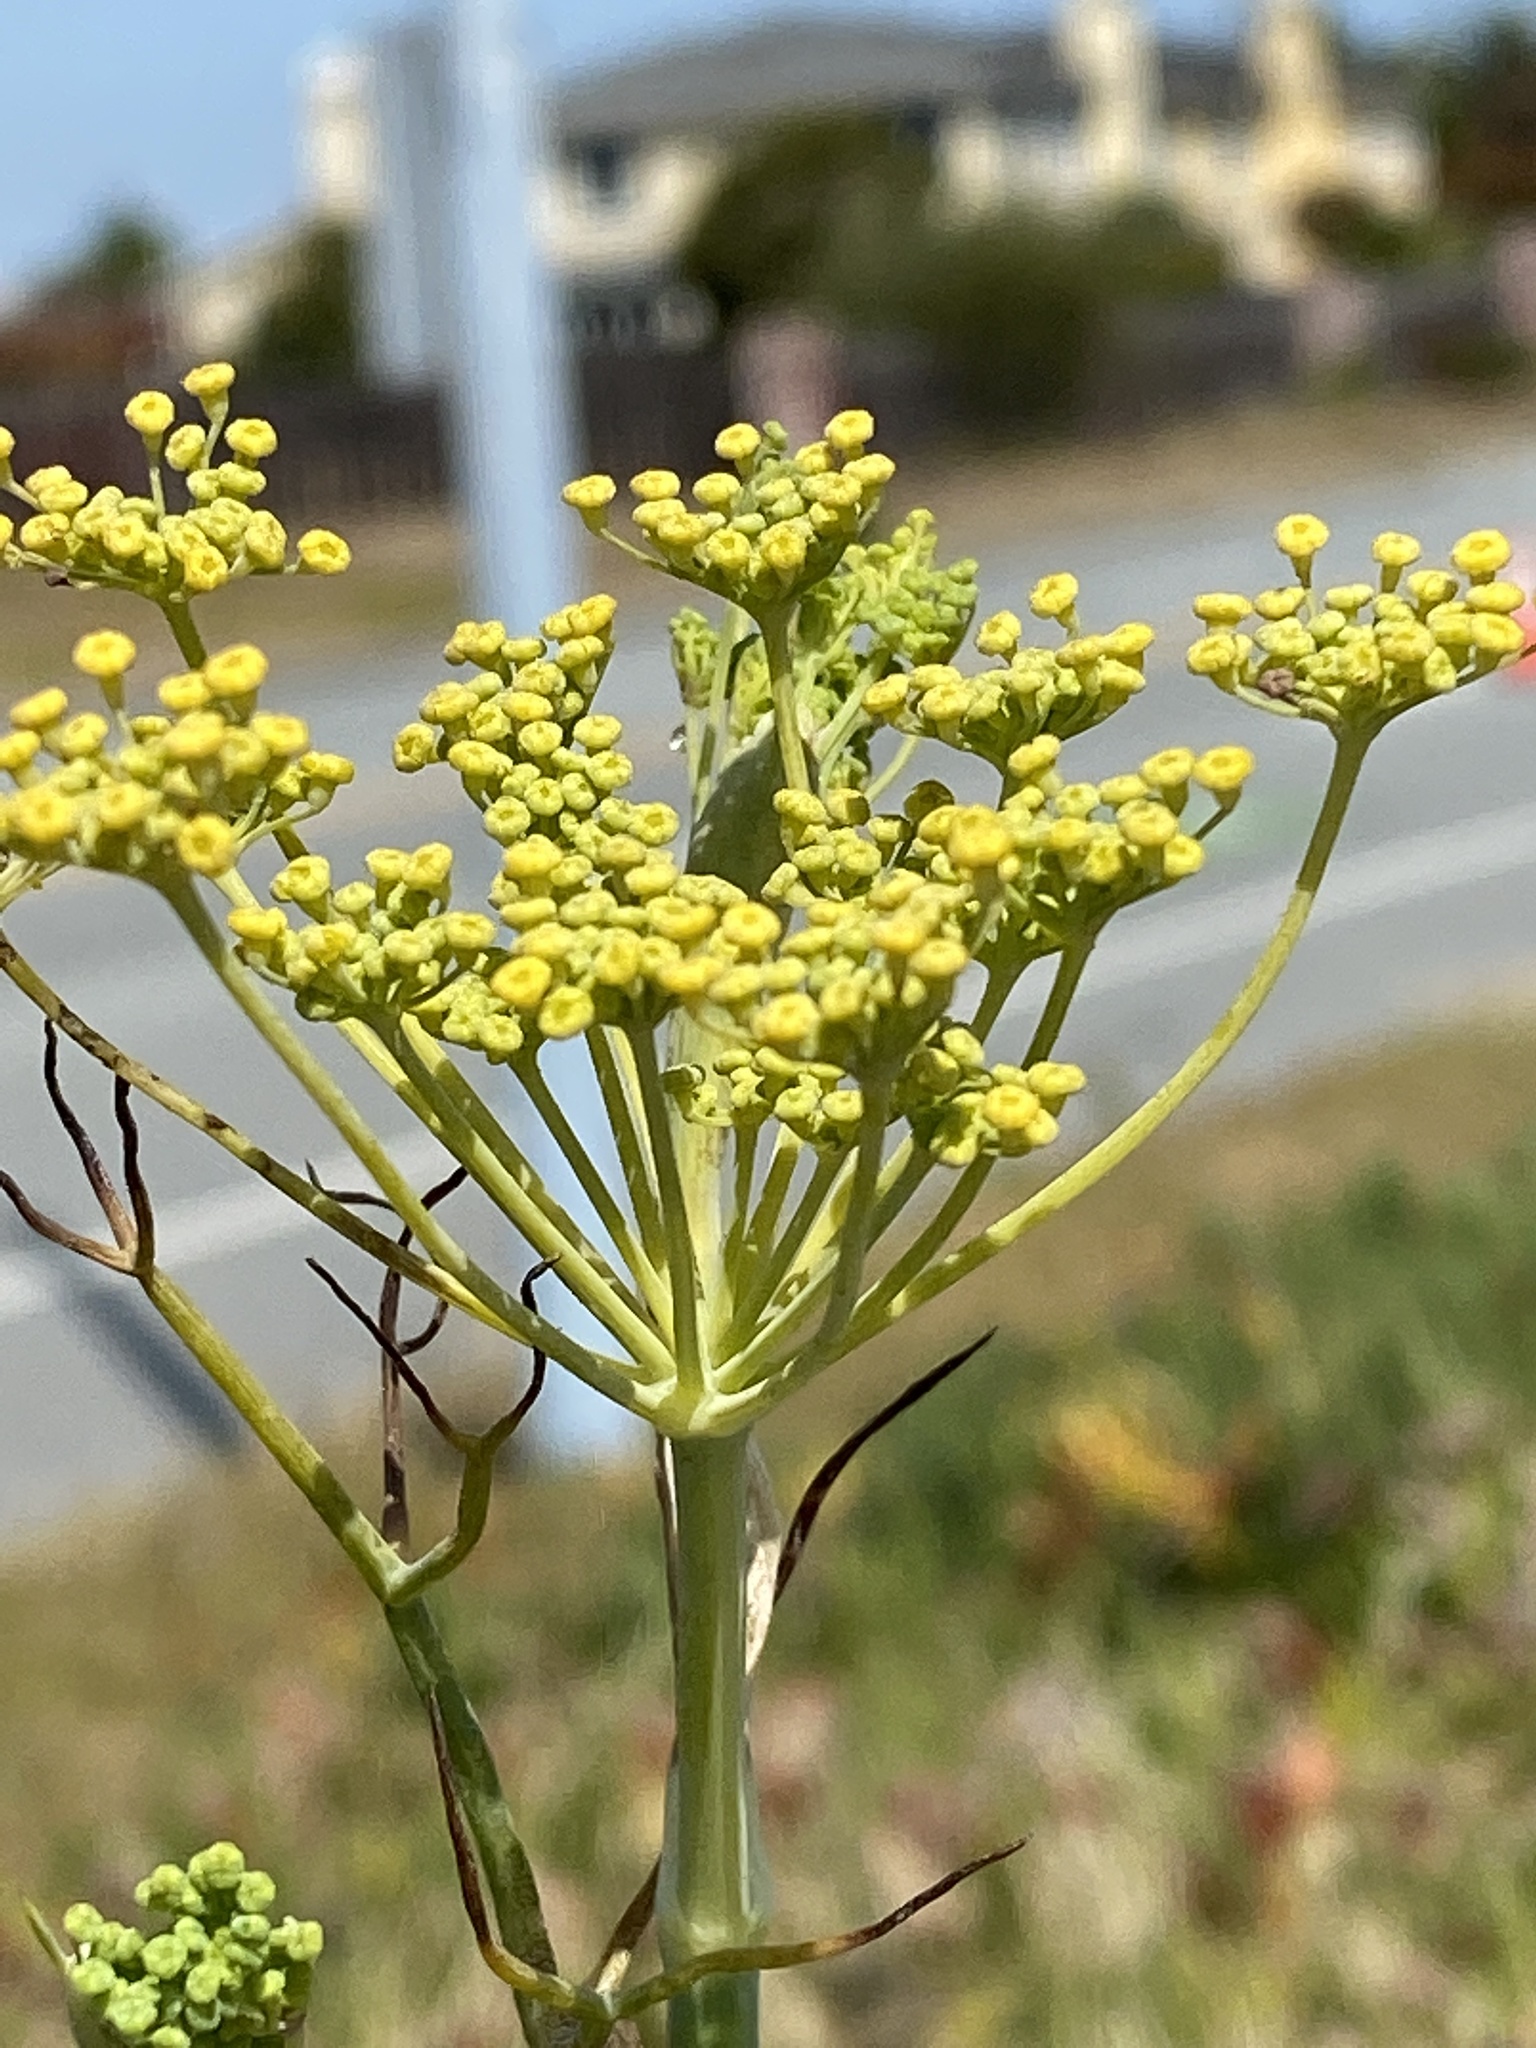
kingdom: Plantae
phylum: Tracheophyta
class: Magnoliopsida
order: Apiales
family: Apiaceae
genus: Foeniculum
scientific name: Foeniculum vulgare
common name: Fennel
